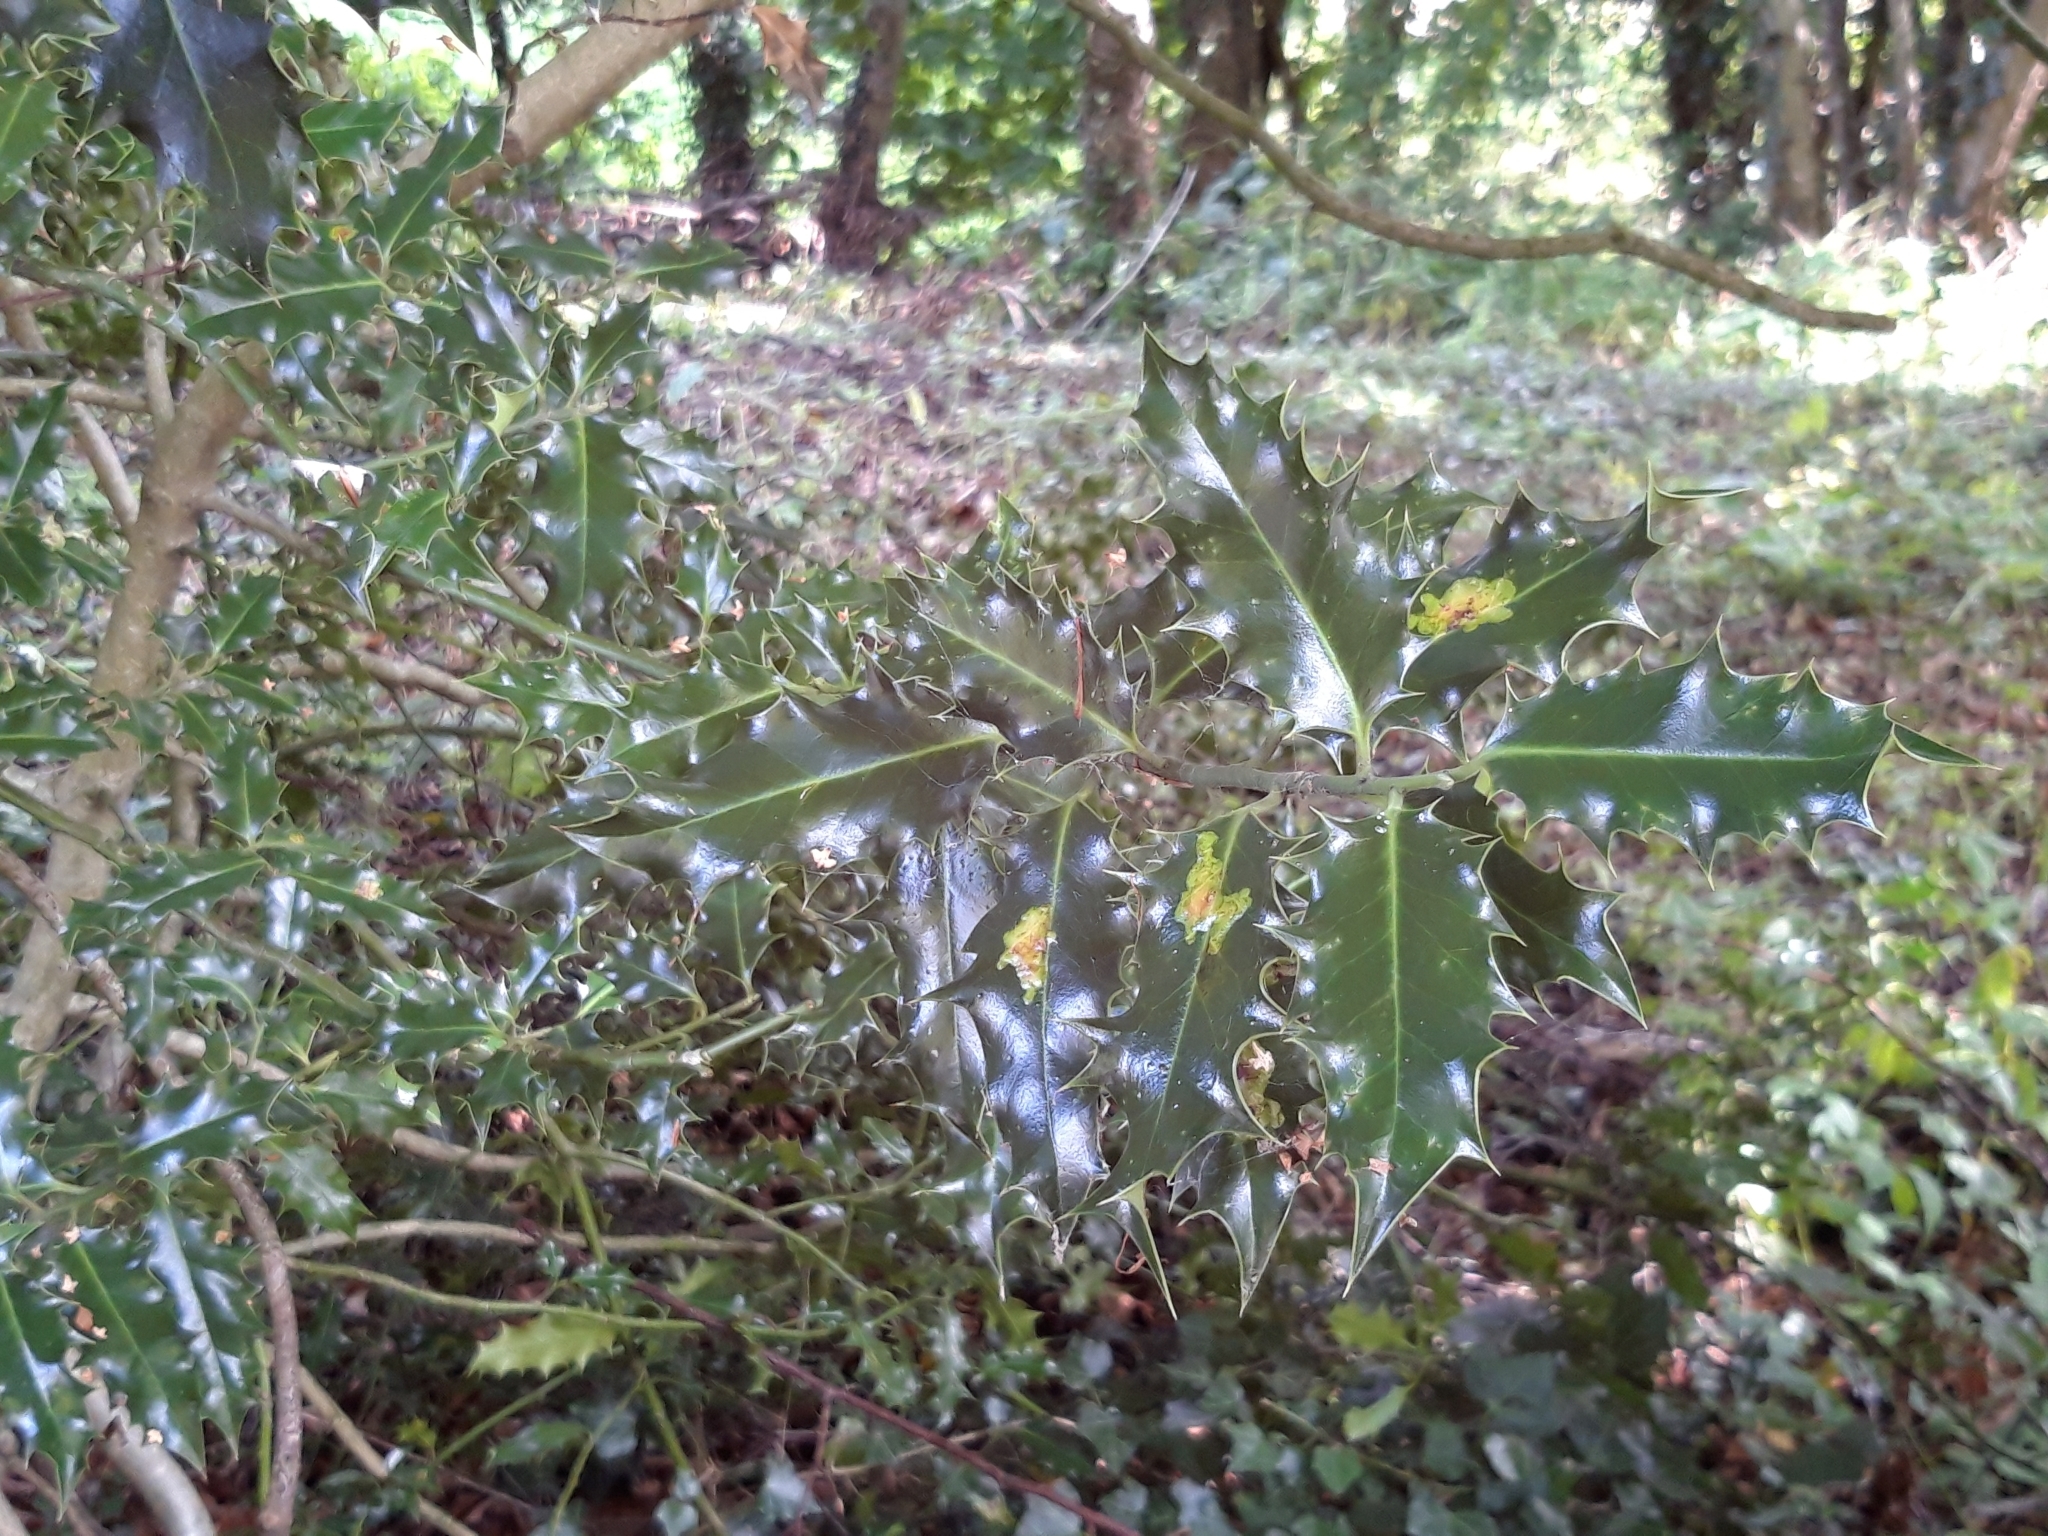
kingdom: Plantae
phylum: Tracheophyta
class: Magnoliopsida
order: Aquifoliales
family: Aquifoliaceae
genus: Ilex
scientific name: Ilex aquifolium
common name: English holly
